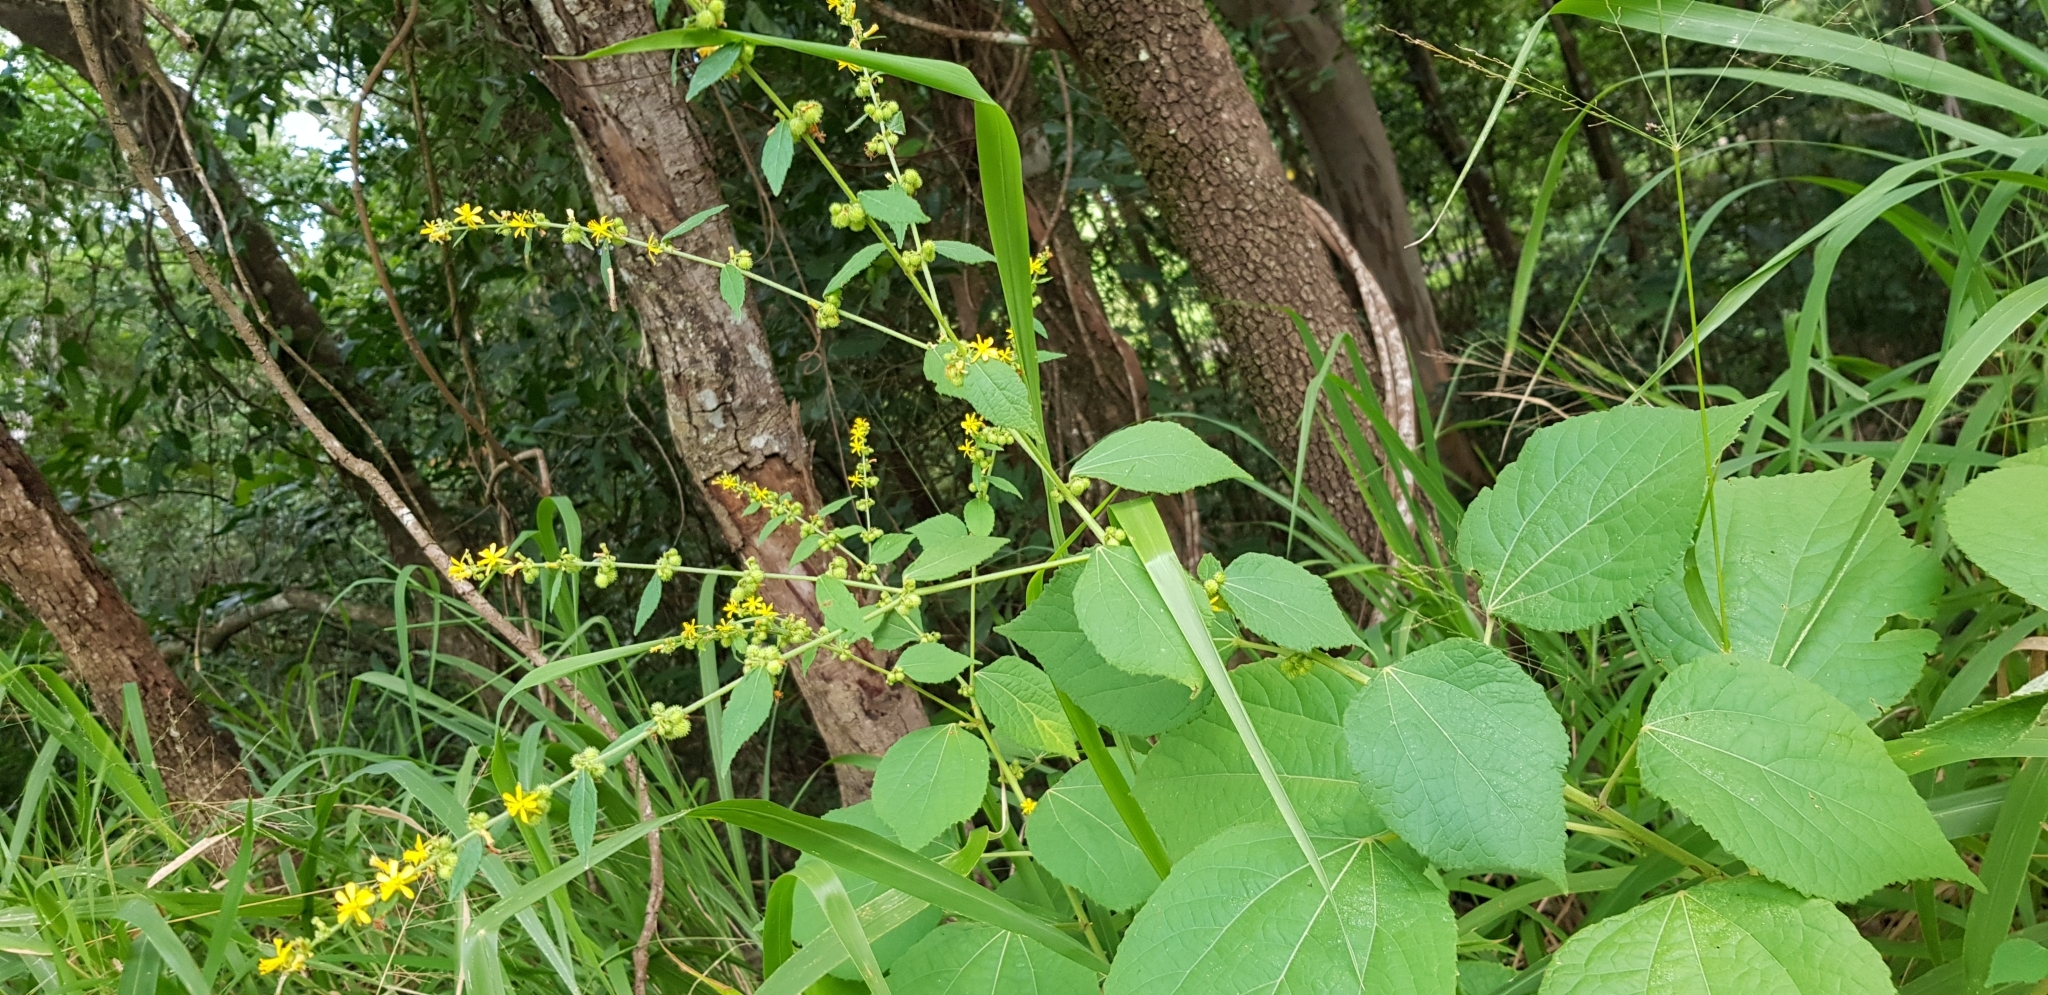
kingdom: Plantae
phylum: Tracheophyta
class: Magnoliopsida
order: Malvales
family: Malvaceae
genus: Triumfetta
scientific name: Triumfetta rhomboidea
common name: Diamond burbark
